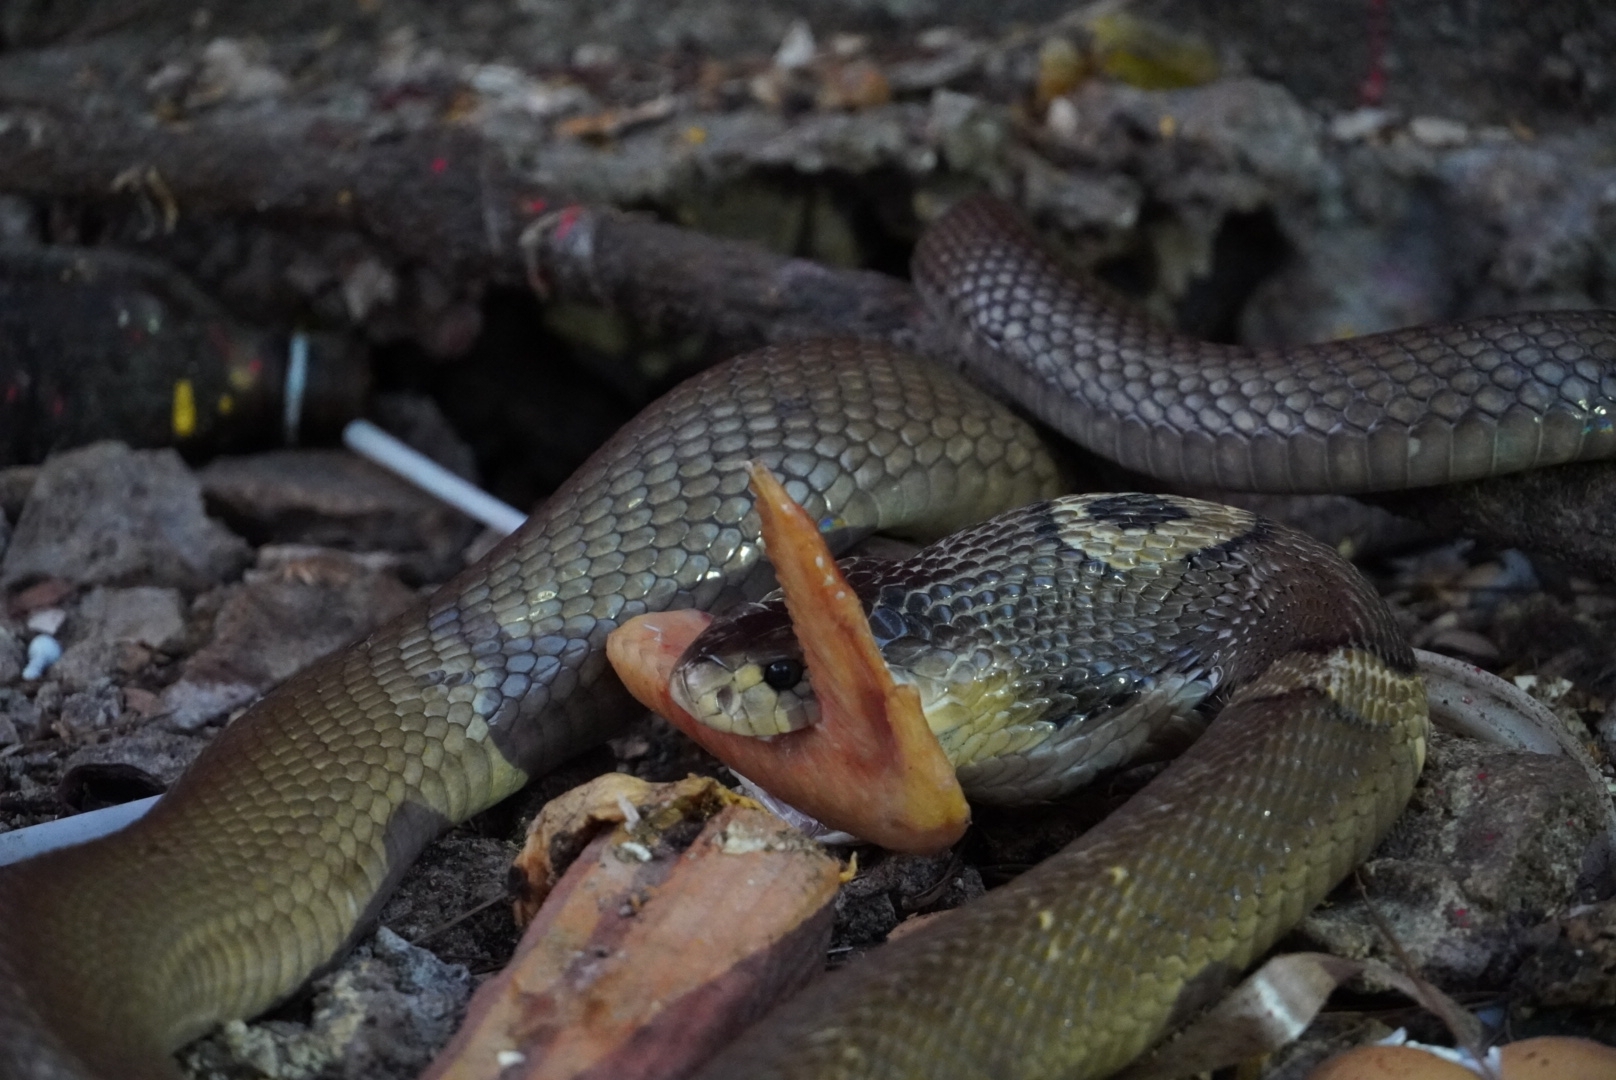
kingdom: Animalia
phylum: Chordata
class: Squamata
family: Elapidae
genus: Naja
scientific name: Naja kaouthia
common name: Monocled cobra
